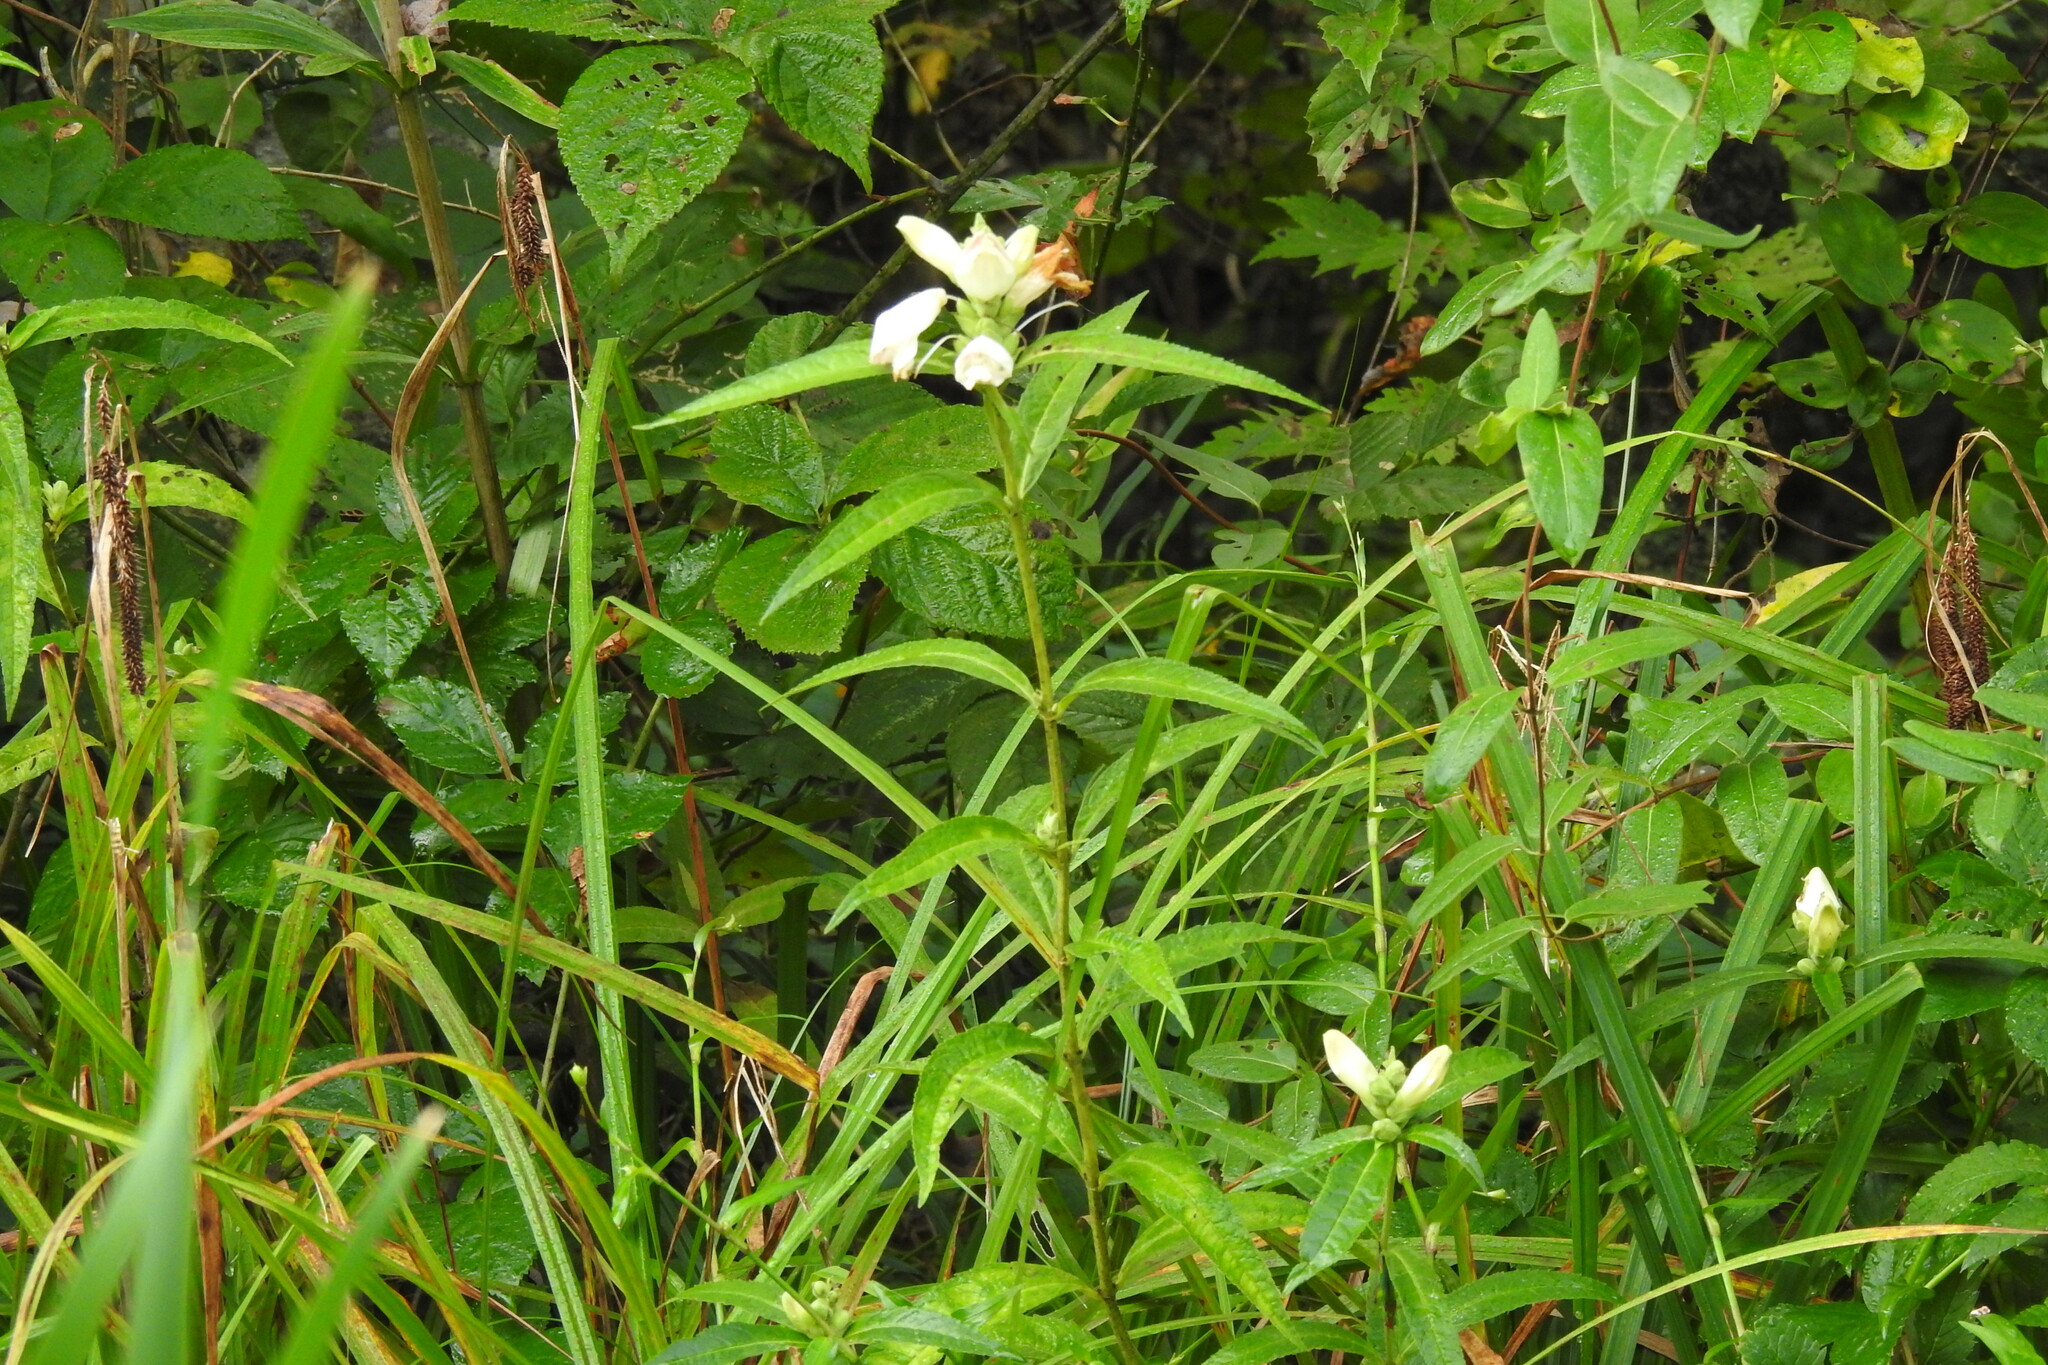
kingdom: Plantae
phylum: Tracheophyta
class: Magnoliopsida
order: Lamiales
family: Plantaginaceae
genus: Chelone
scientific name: Chelone glabra
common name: Snakehead
